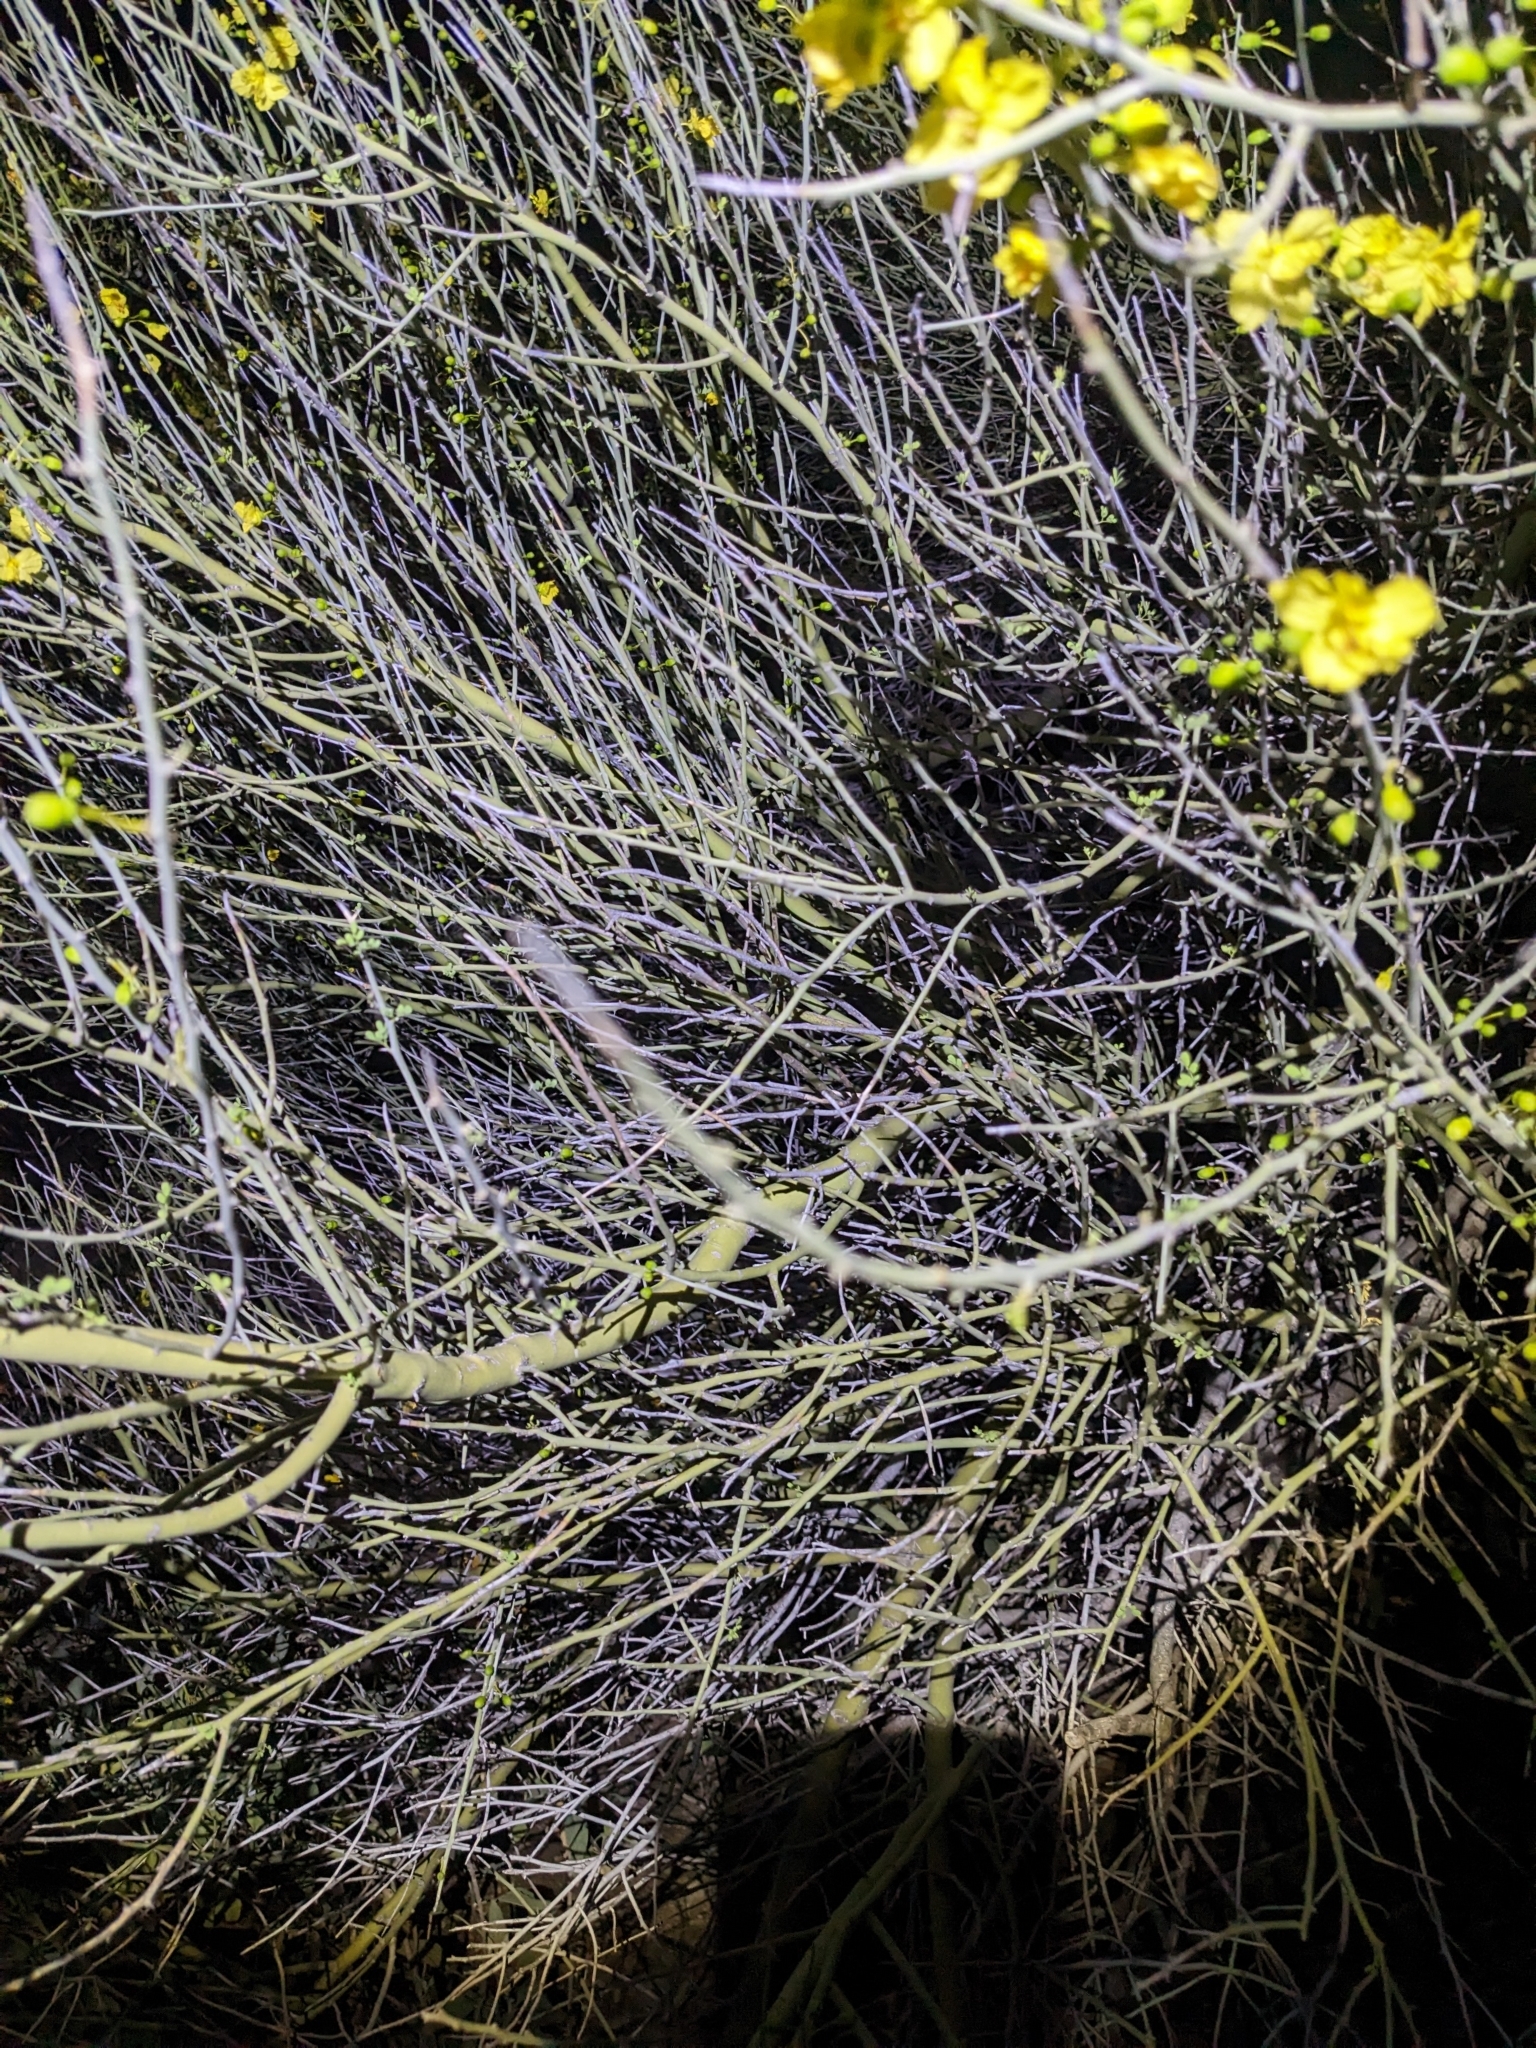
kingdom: Plantae
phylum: Tracheophyta
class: Magnoliopsida
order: Fabales
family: Fabaceae
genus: Parkinsonia
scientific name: Parkinsonia florida
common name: Blue paloverde
